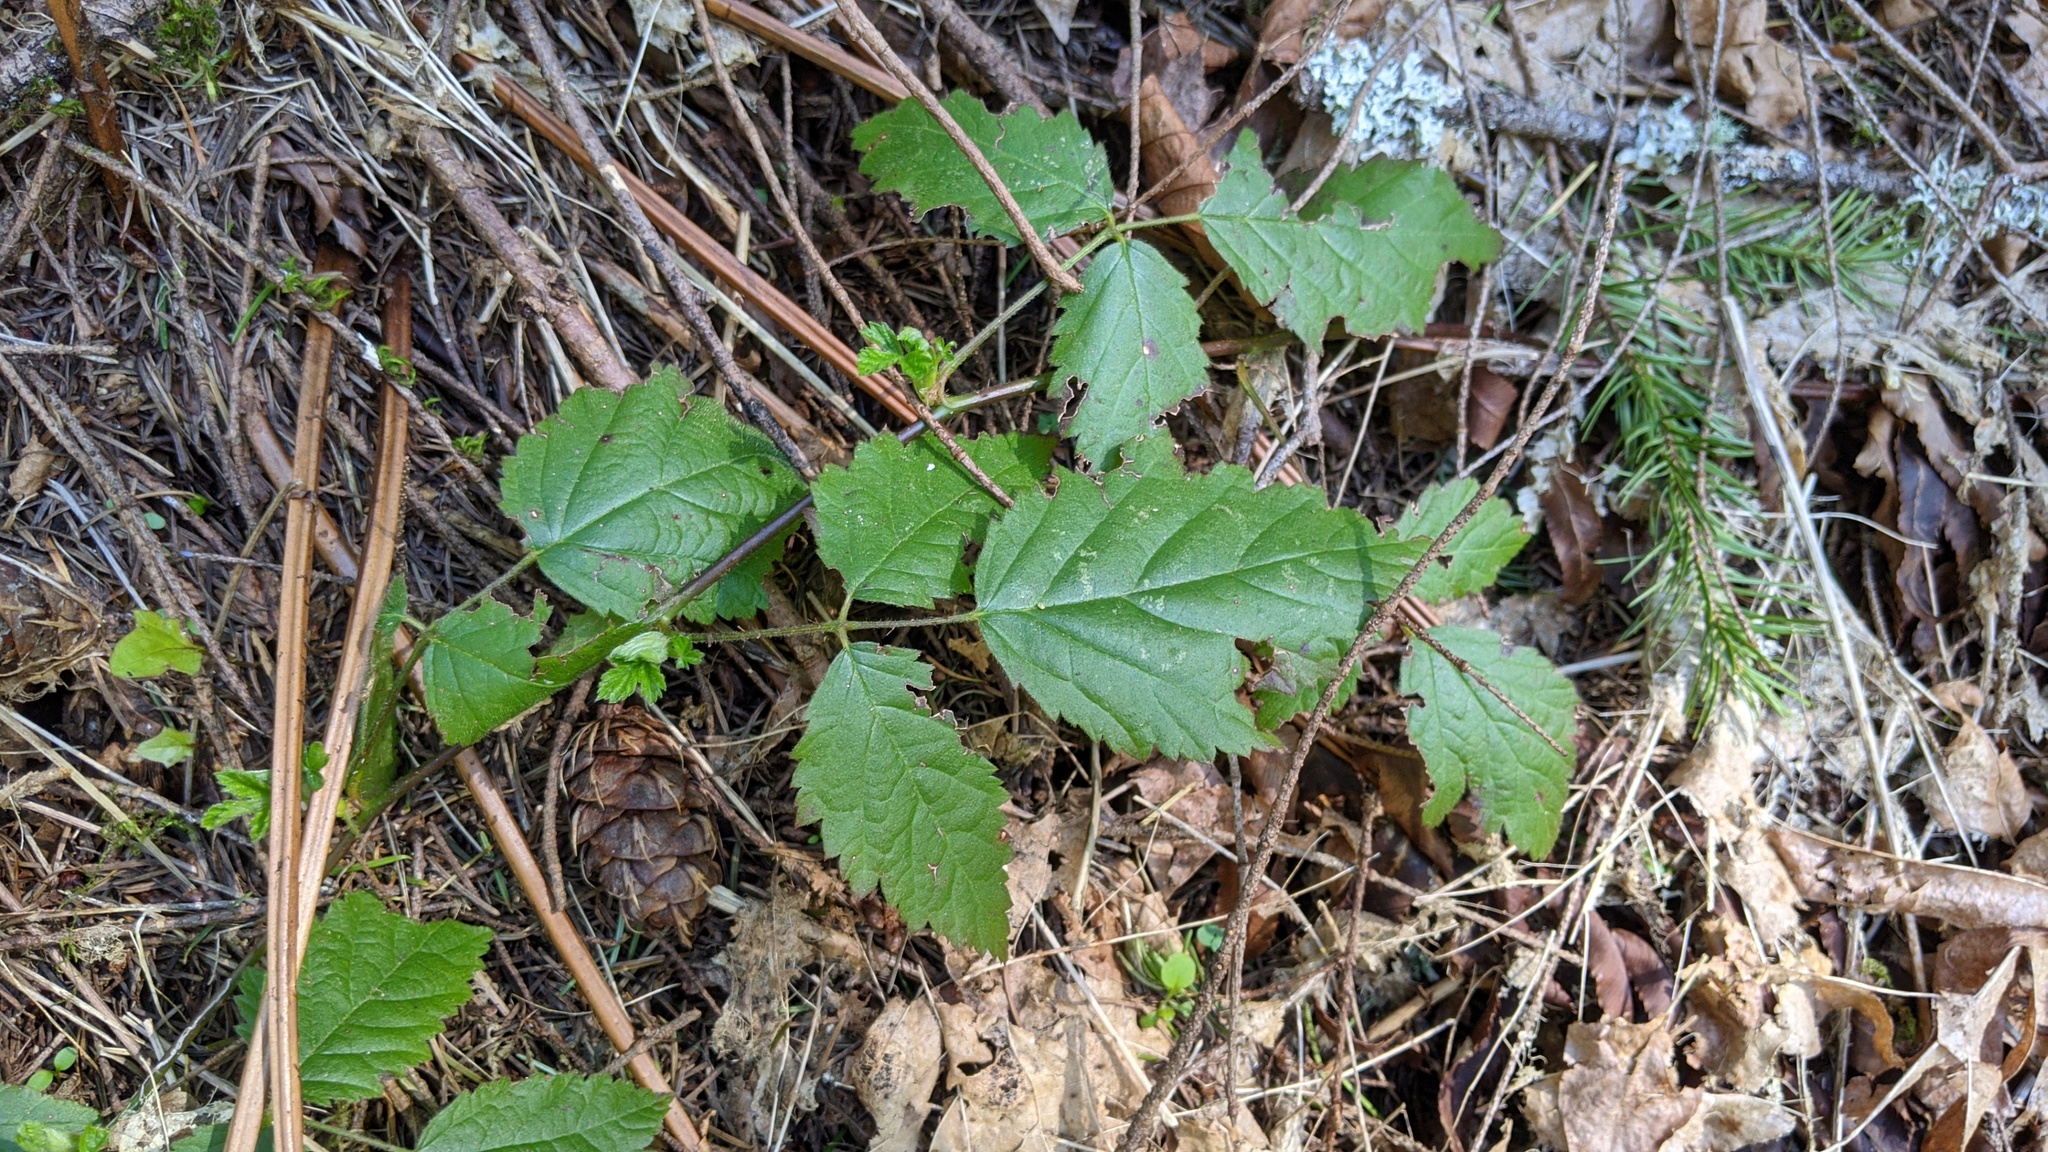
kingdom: Plantae
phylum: Tracheophyta
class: Magnoliopsida
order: Rosales
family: Rosaceae
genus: Rubus
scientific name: Rubus ursinus
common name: Pacific blackberry
